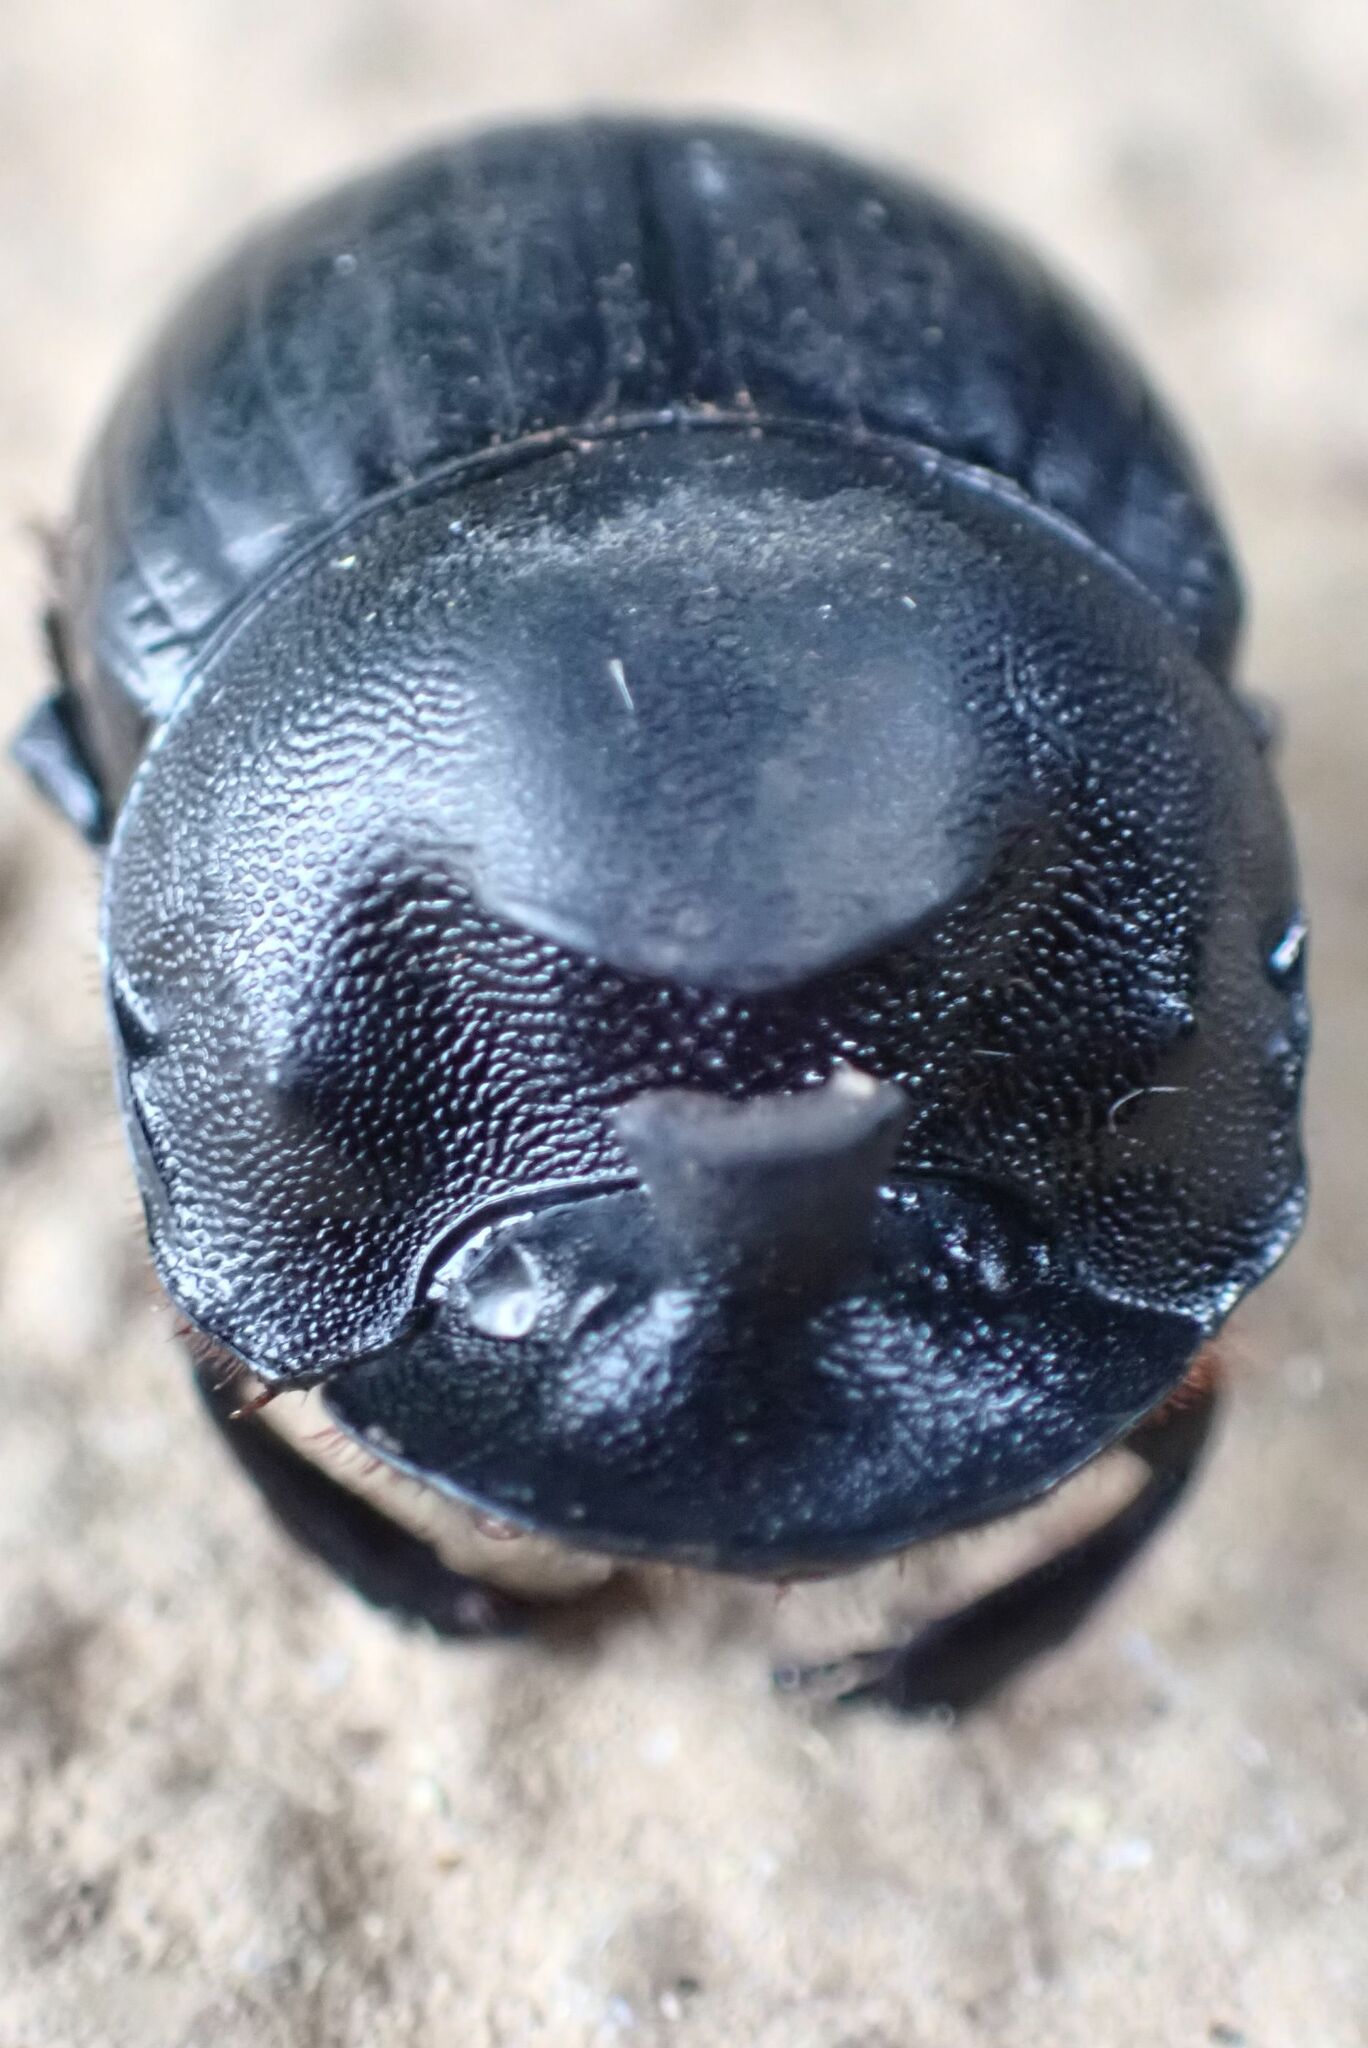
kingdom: Animalia
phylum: Arthropoda
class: Insecta
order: Coleoptera
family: Scarabaeidae
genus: Copris
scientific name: Copris elphenor
